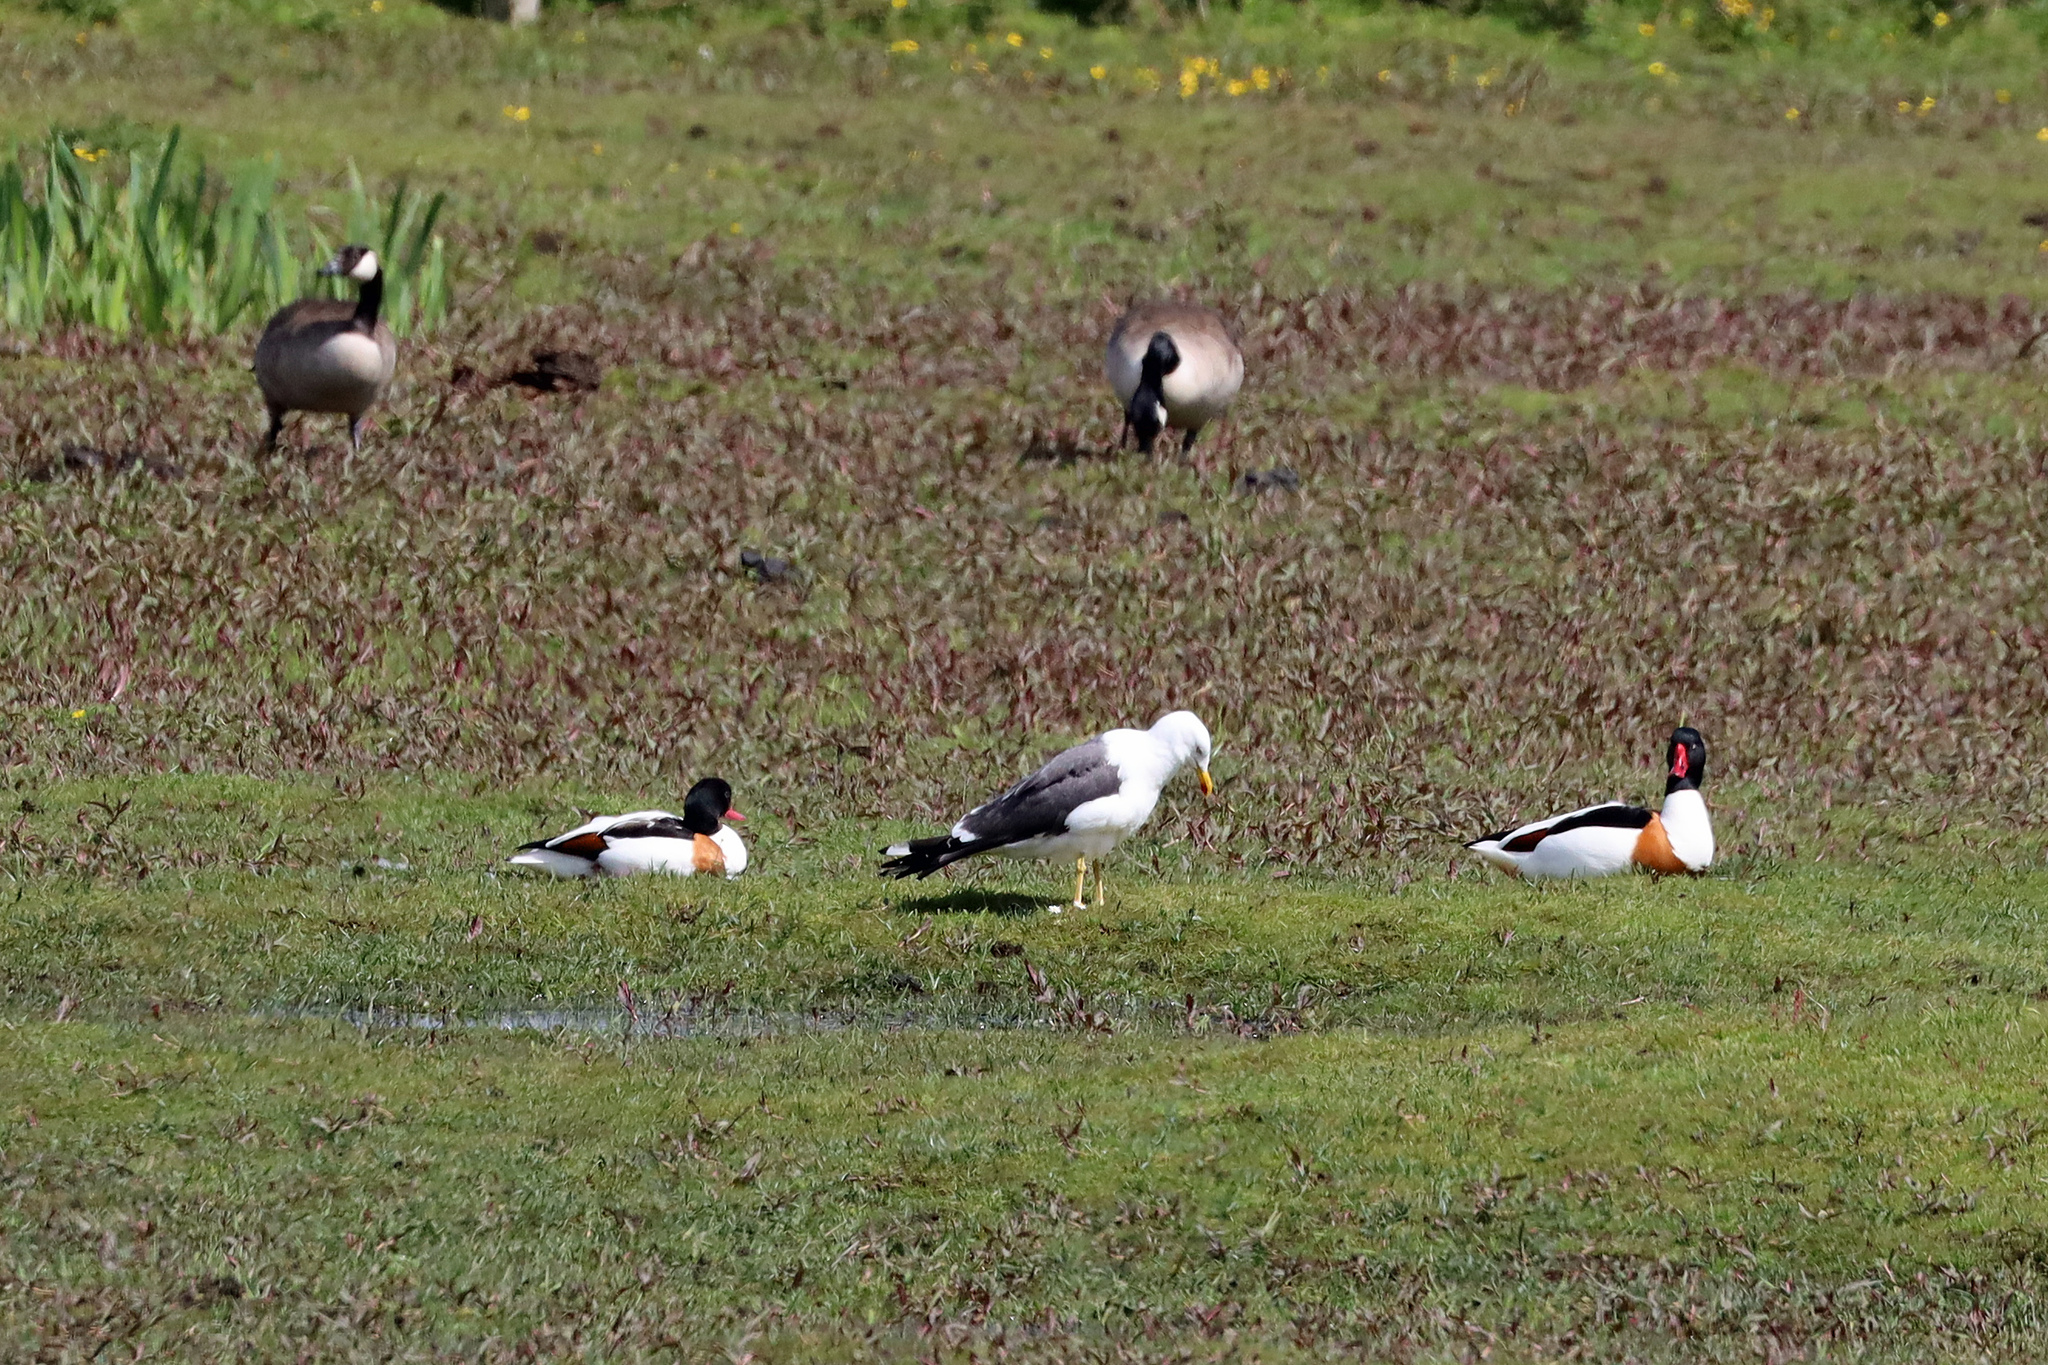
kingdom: Animalia
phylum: Chordata
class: Aves
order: Anseriformes
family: Anatidae
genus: Tadorna
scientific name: Tadorna tadorna
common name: Common shelduck
